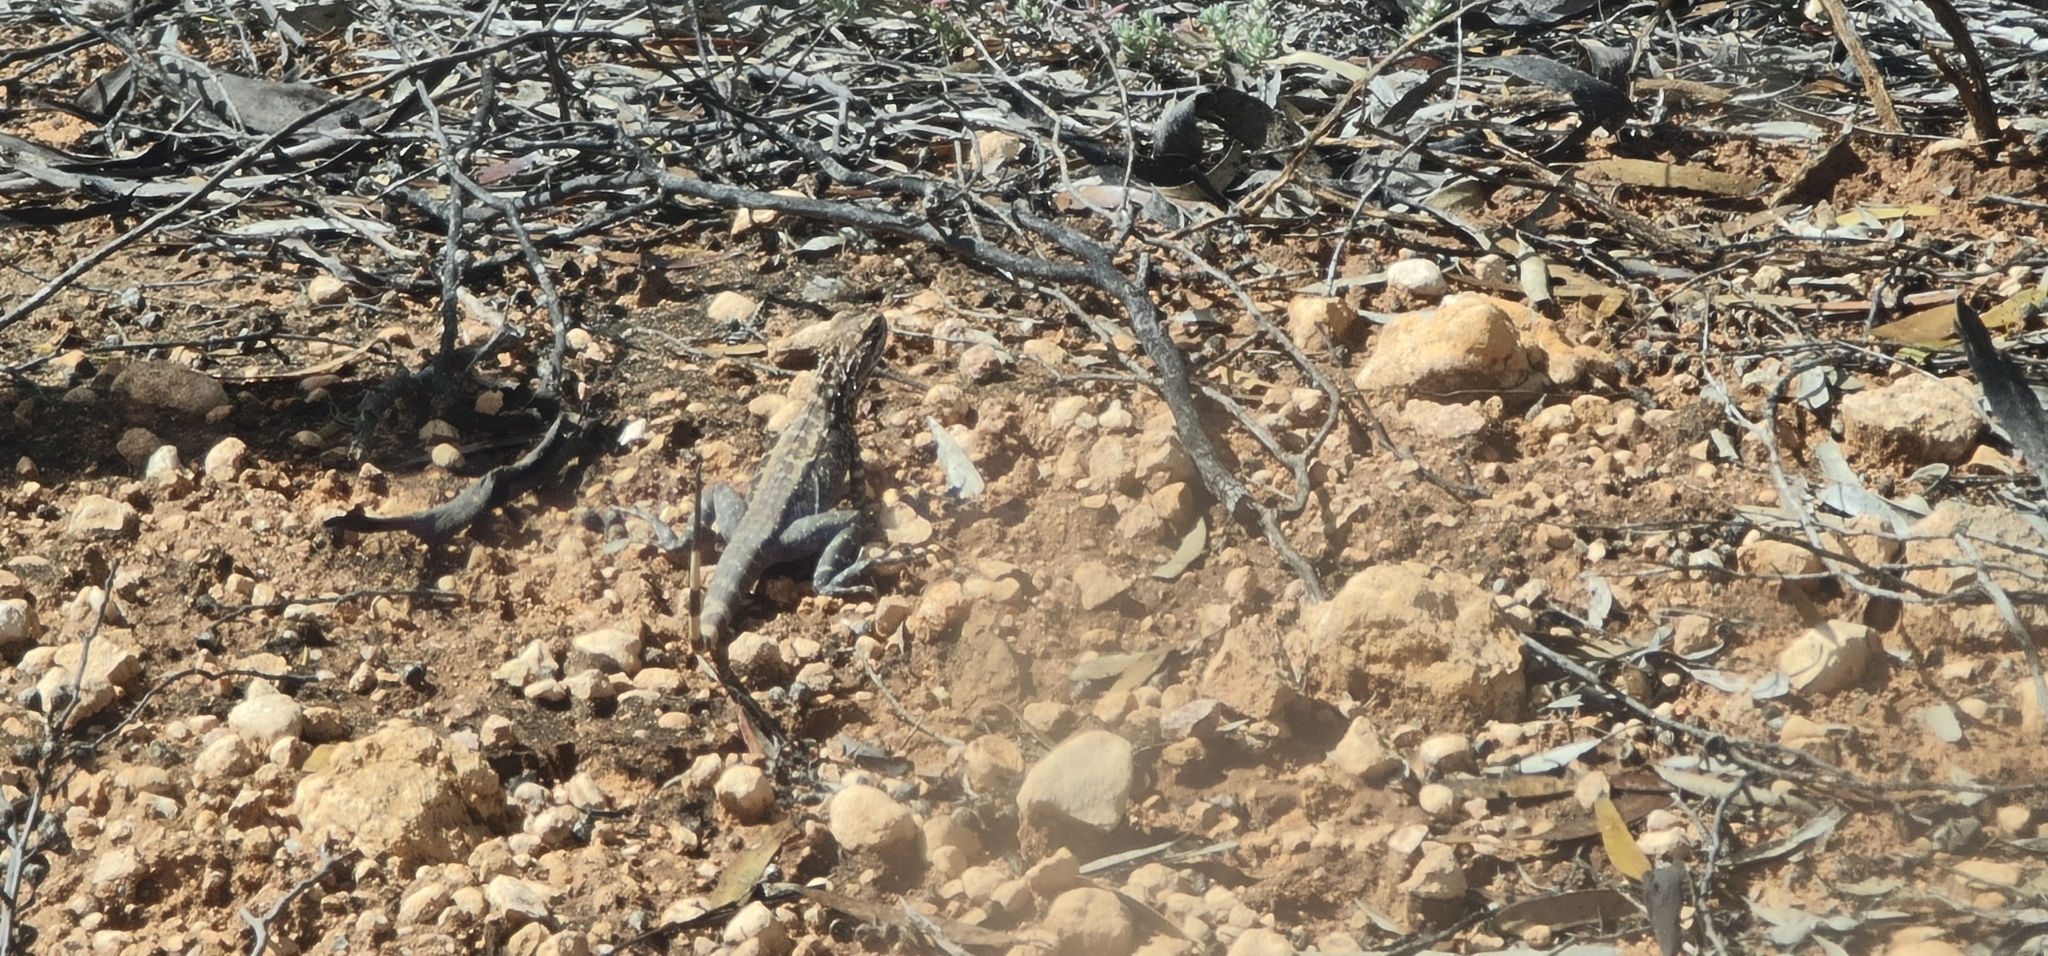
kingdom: Animalia
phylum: Chordata
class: Squamata
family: Agamidae
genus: Ctenophorus
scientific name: Ctenophorus cristatus
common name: Crested dragon
